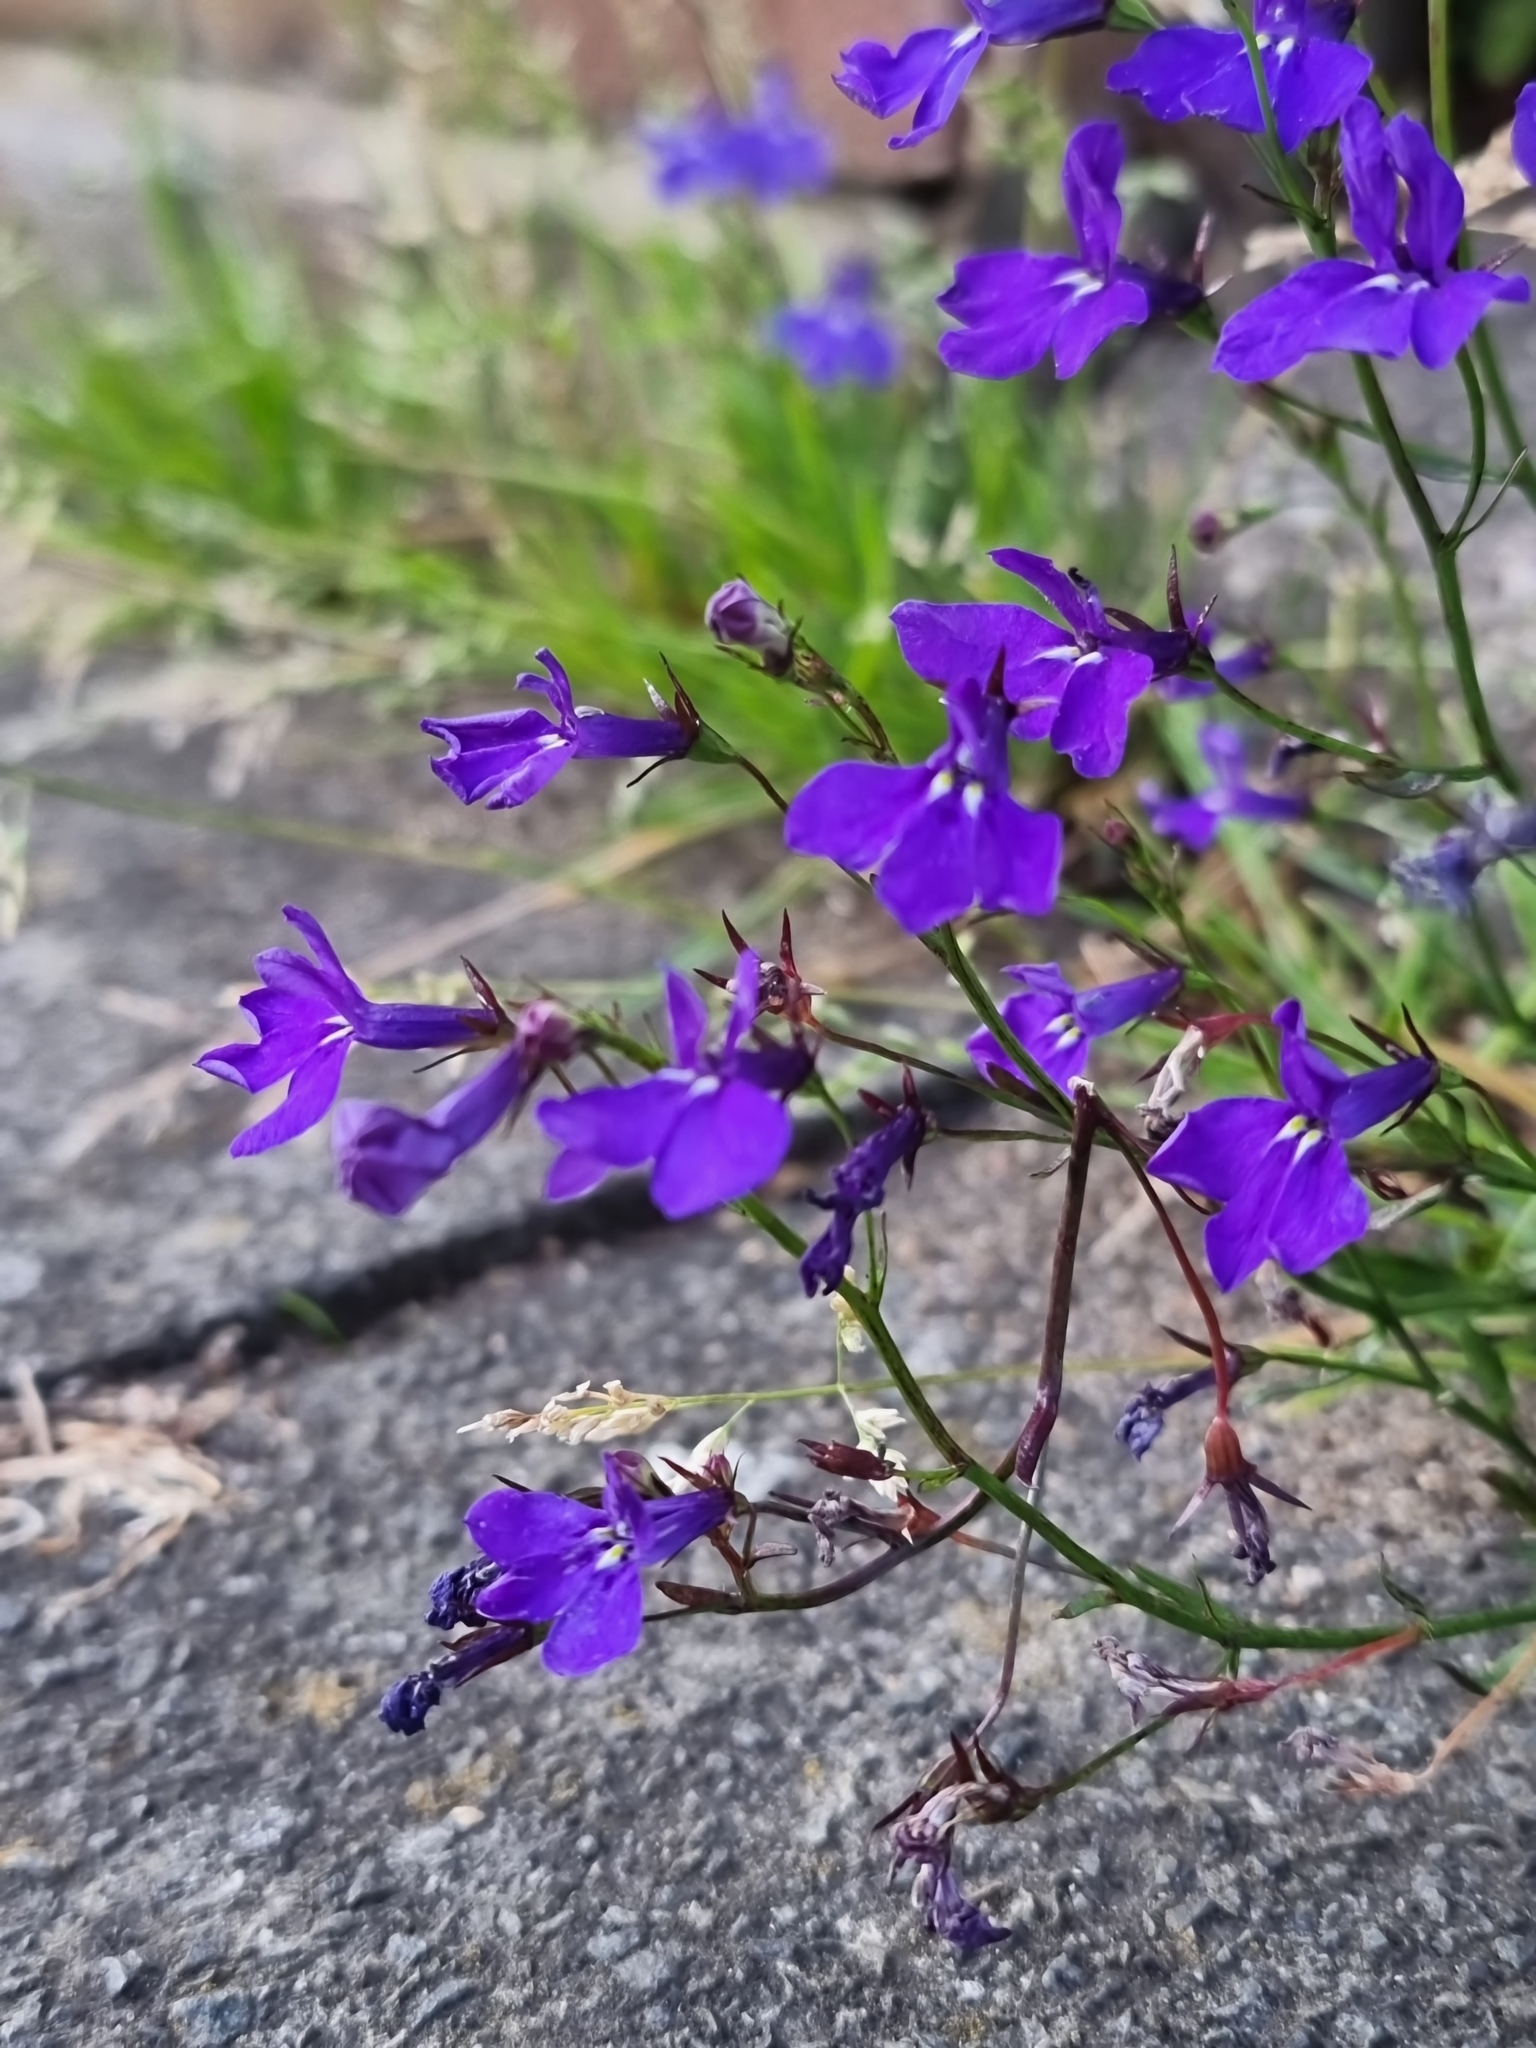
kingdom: Plantae
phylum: Tracheophyta
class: Magnoliopsida
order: Asterales
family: Campanulaceae
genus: Lobelia
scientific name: Lobelia erinus
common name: Edging lobelia
